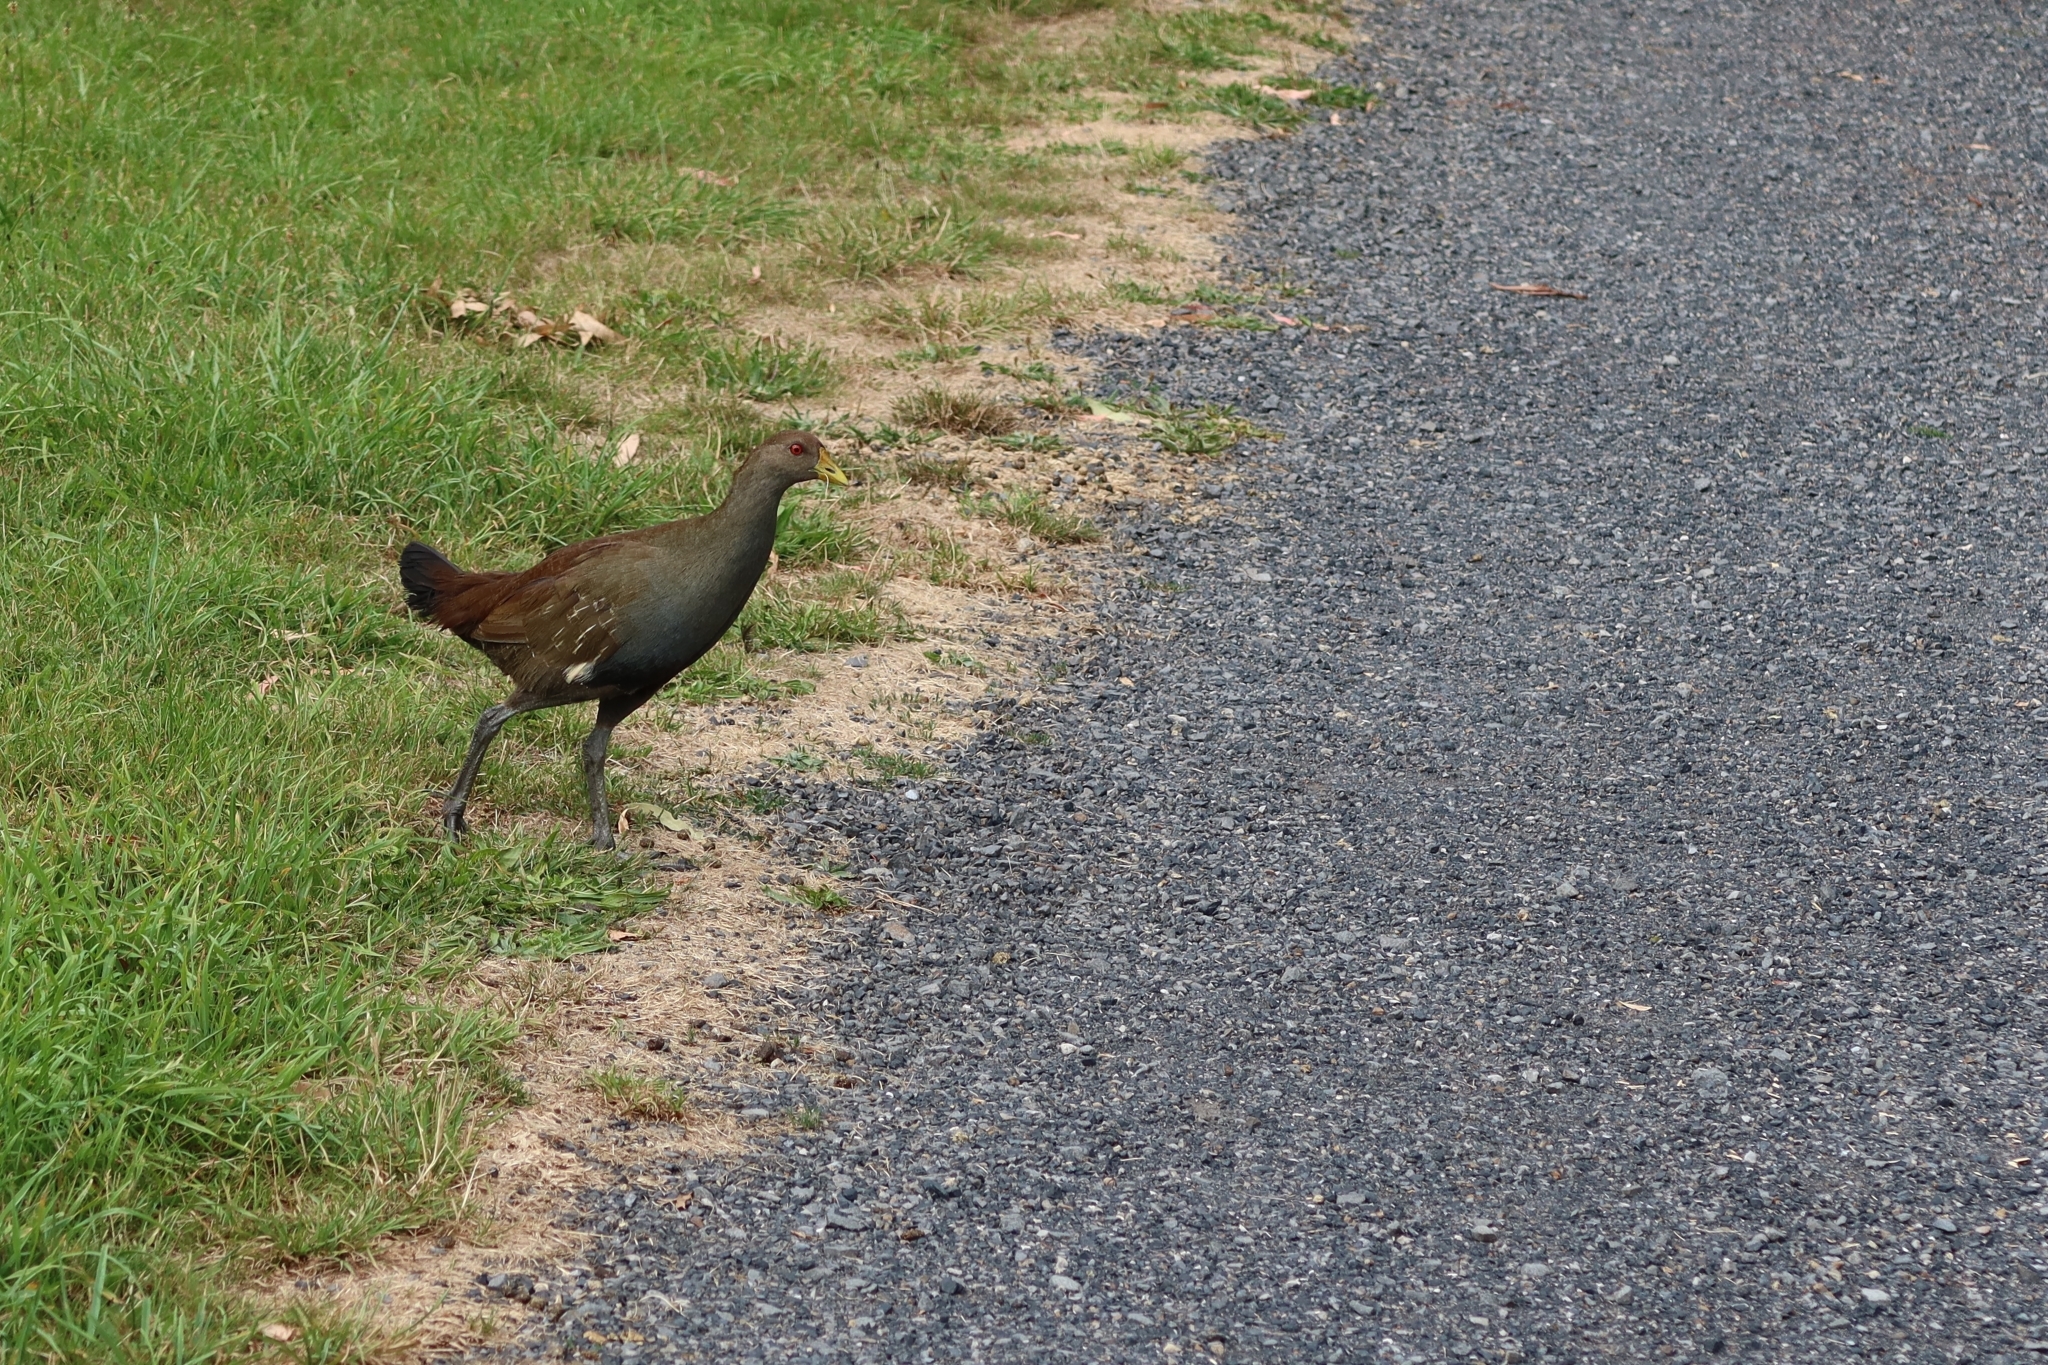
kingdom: Animalia
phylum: Chordata
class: Aves
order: Gruiformes
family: Rallidae
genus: Gallinula
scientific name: Gallinula mortierii
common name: Tasmanian nativehen
